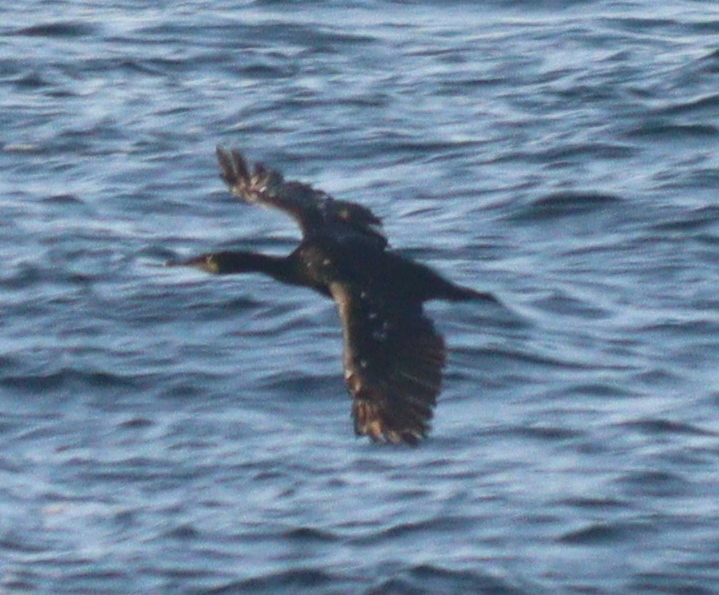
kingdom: Animalia
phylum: Chordata
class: Aves
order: Suliformes
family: Phalacrocoracidae
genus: Phalacrocorax
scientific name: Phalacrocorax aristotelis
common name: European shag
